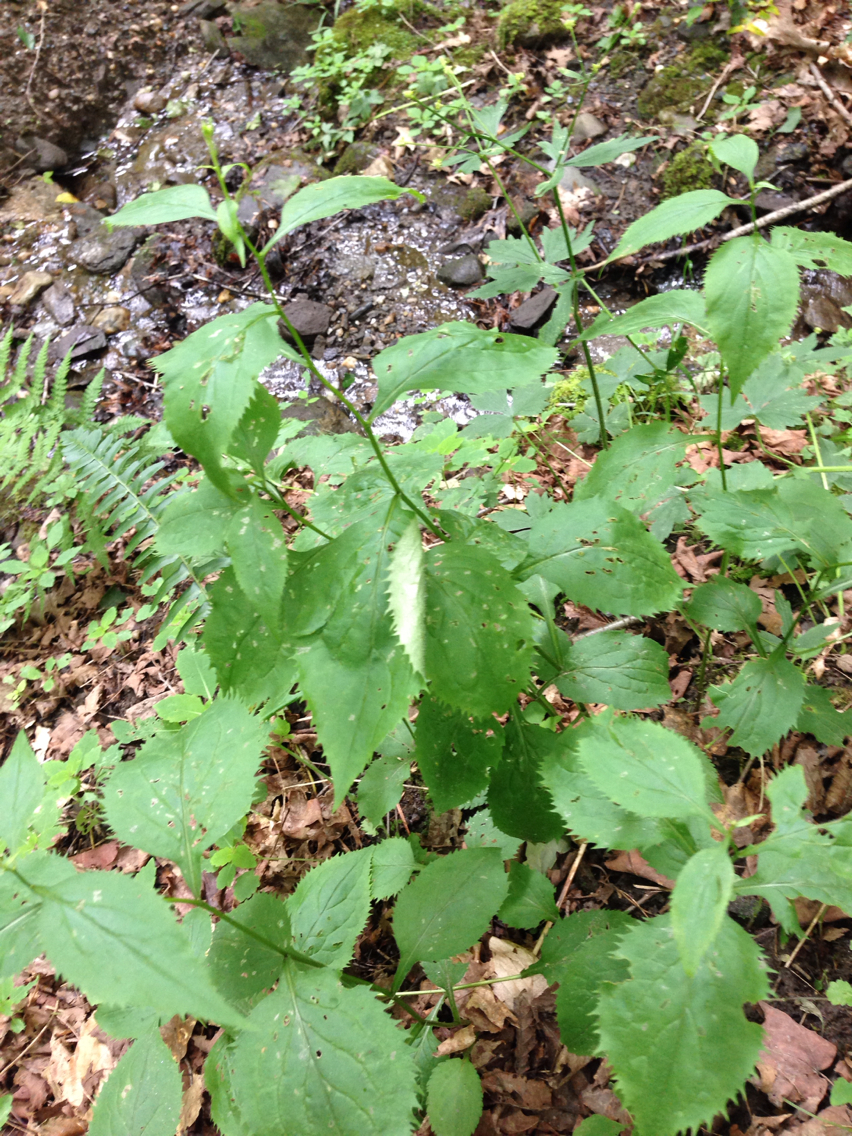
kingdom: Plantae
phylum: Tracheophyta
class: Magnoliopsida
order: Asterales
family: Asteraceae
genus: Solidago
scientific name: Solidago flexicaulis
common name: Zig-zag goldenrod
